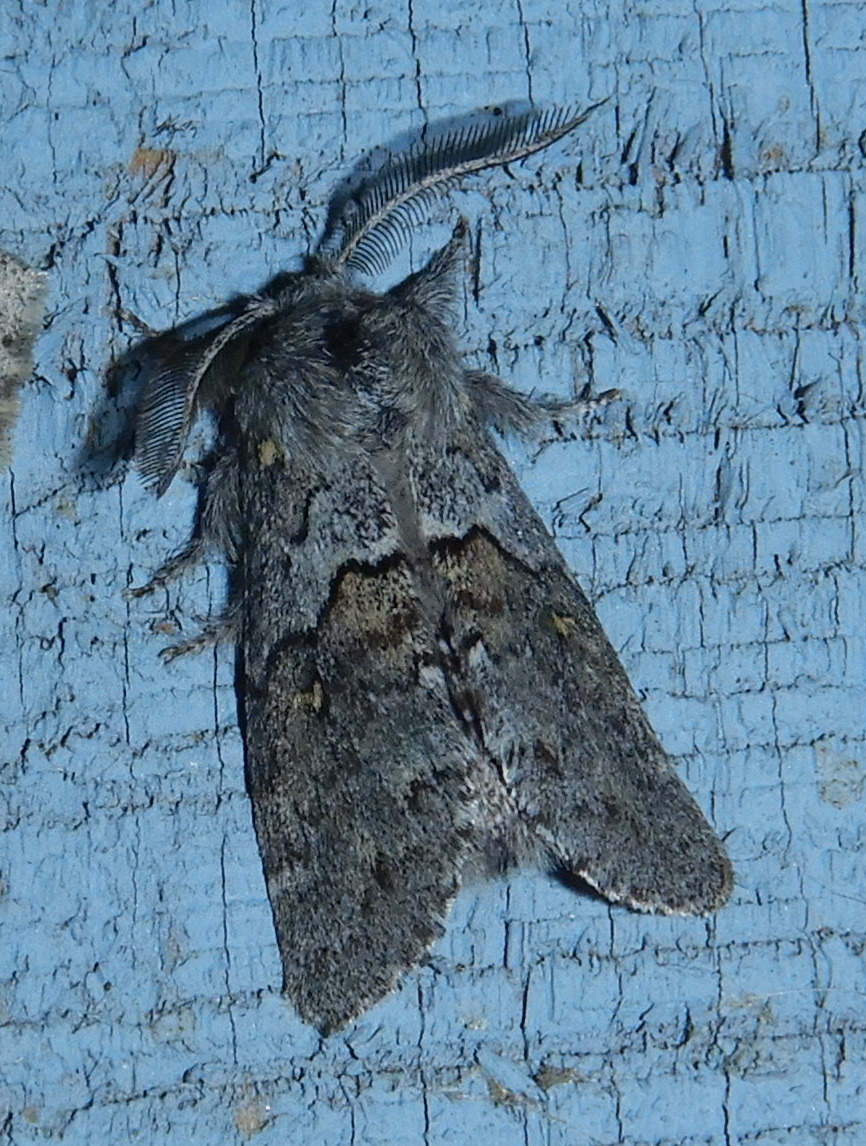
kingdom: Animalia
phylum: Arthropoda
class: Insecta
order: Lepidoptera
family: Notodontidae
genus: Gluphisia
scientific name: Gluphisia avimacula
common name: Four-spotted gluphisia moth
